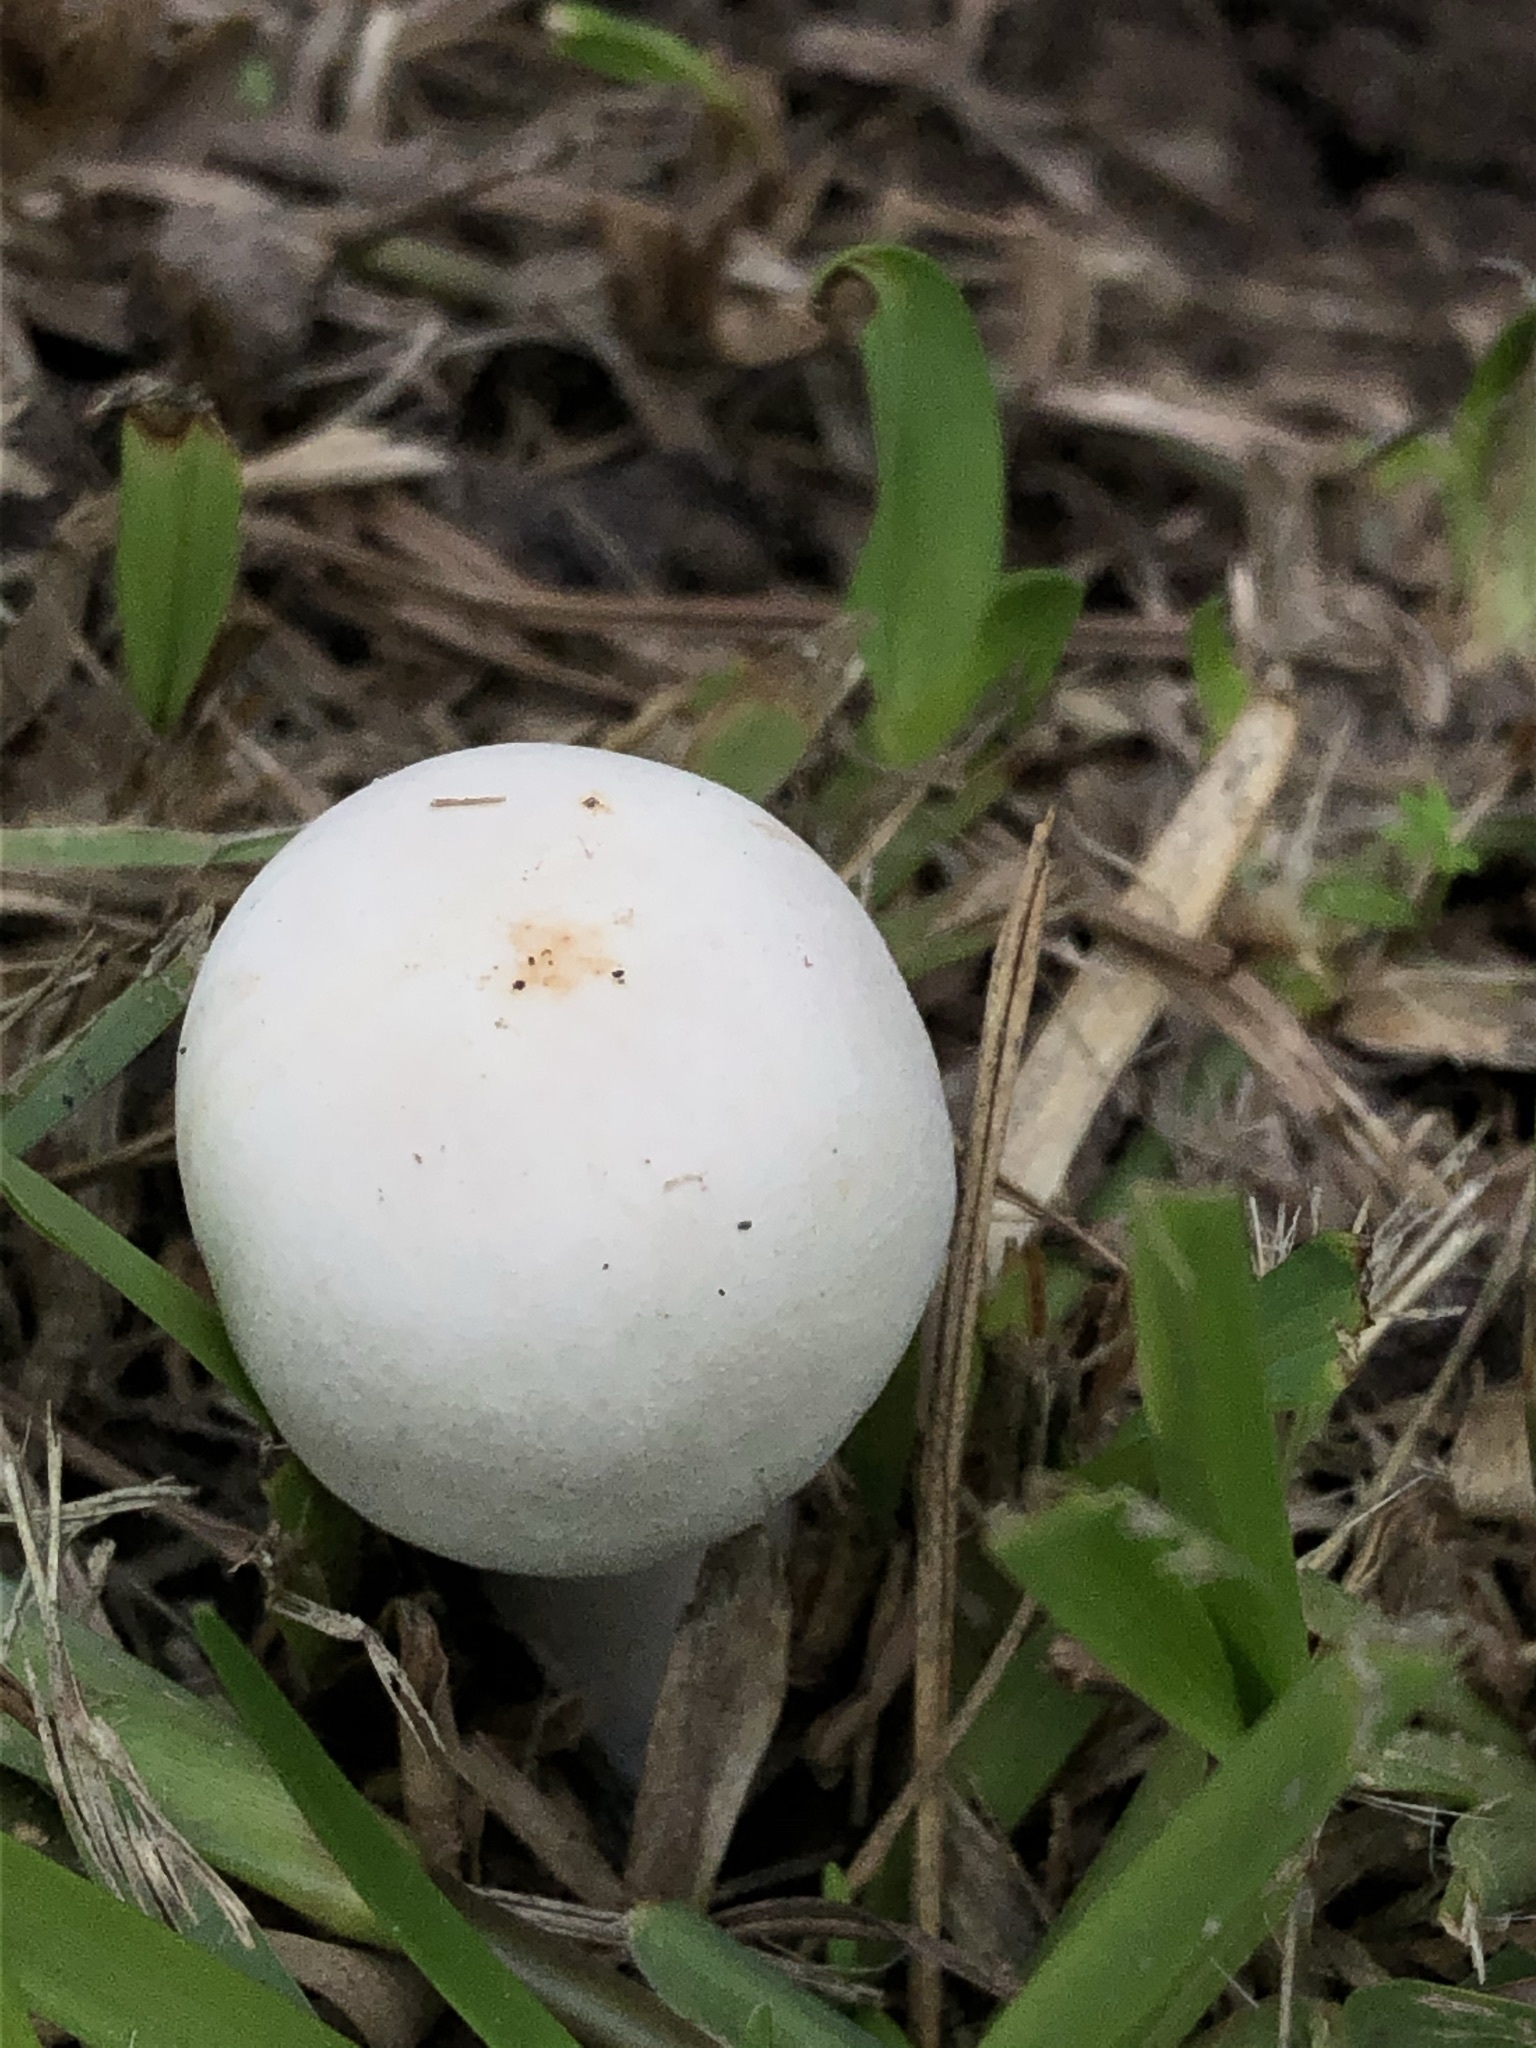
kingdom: Fungi
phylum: Basidiomycota
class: Agaricomycetes
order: Agaricales
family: Agaricaceae
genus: Leucoagaricus
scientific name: Leucoagaricus leucothites
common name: White dapperling
